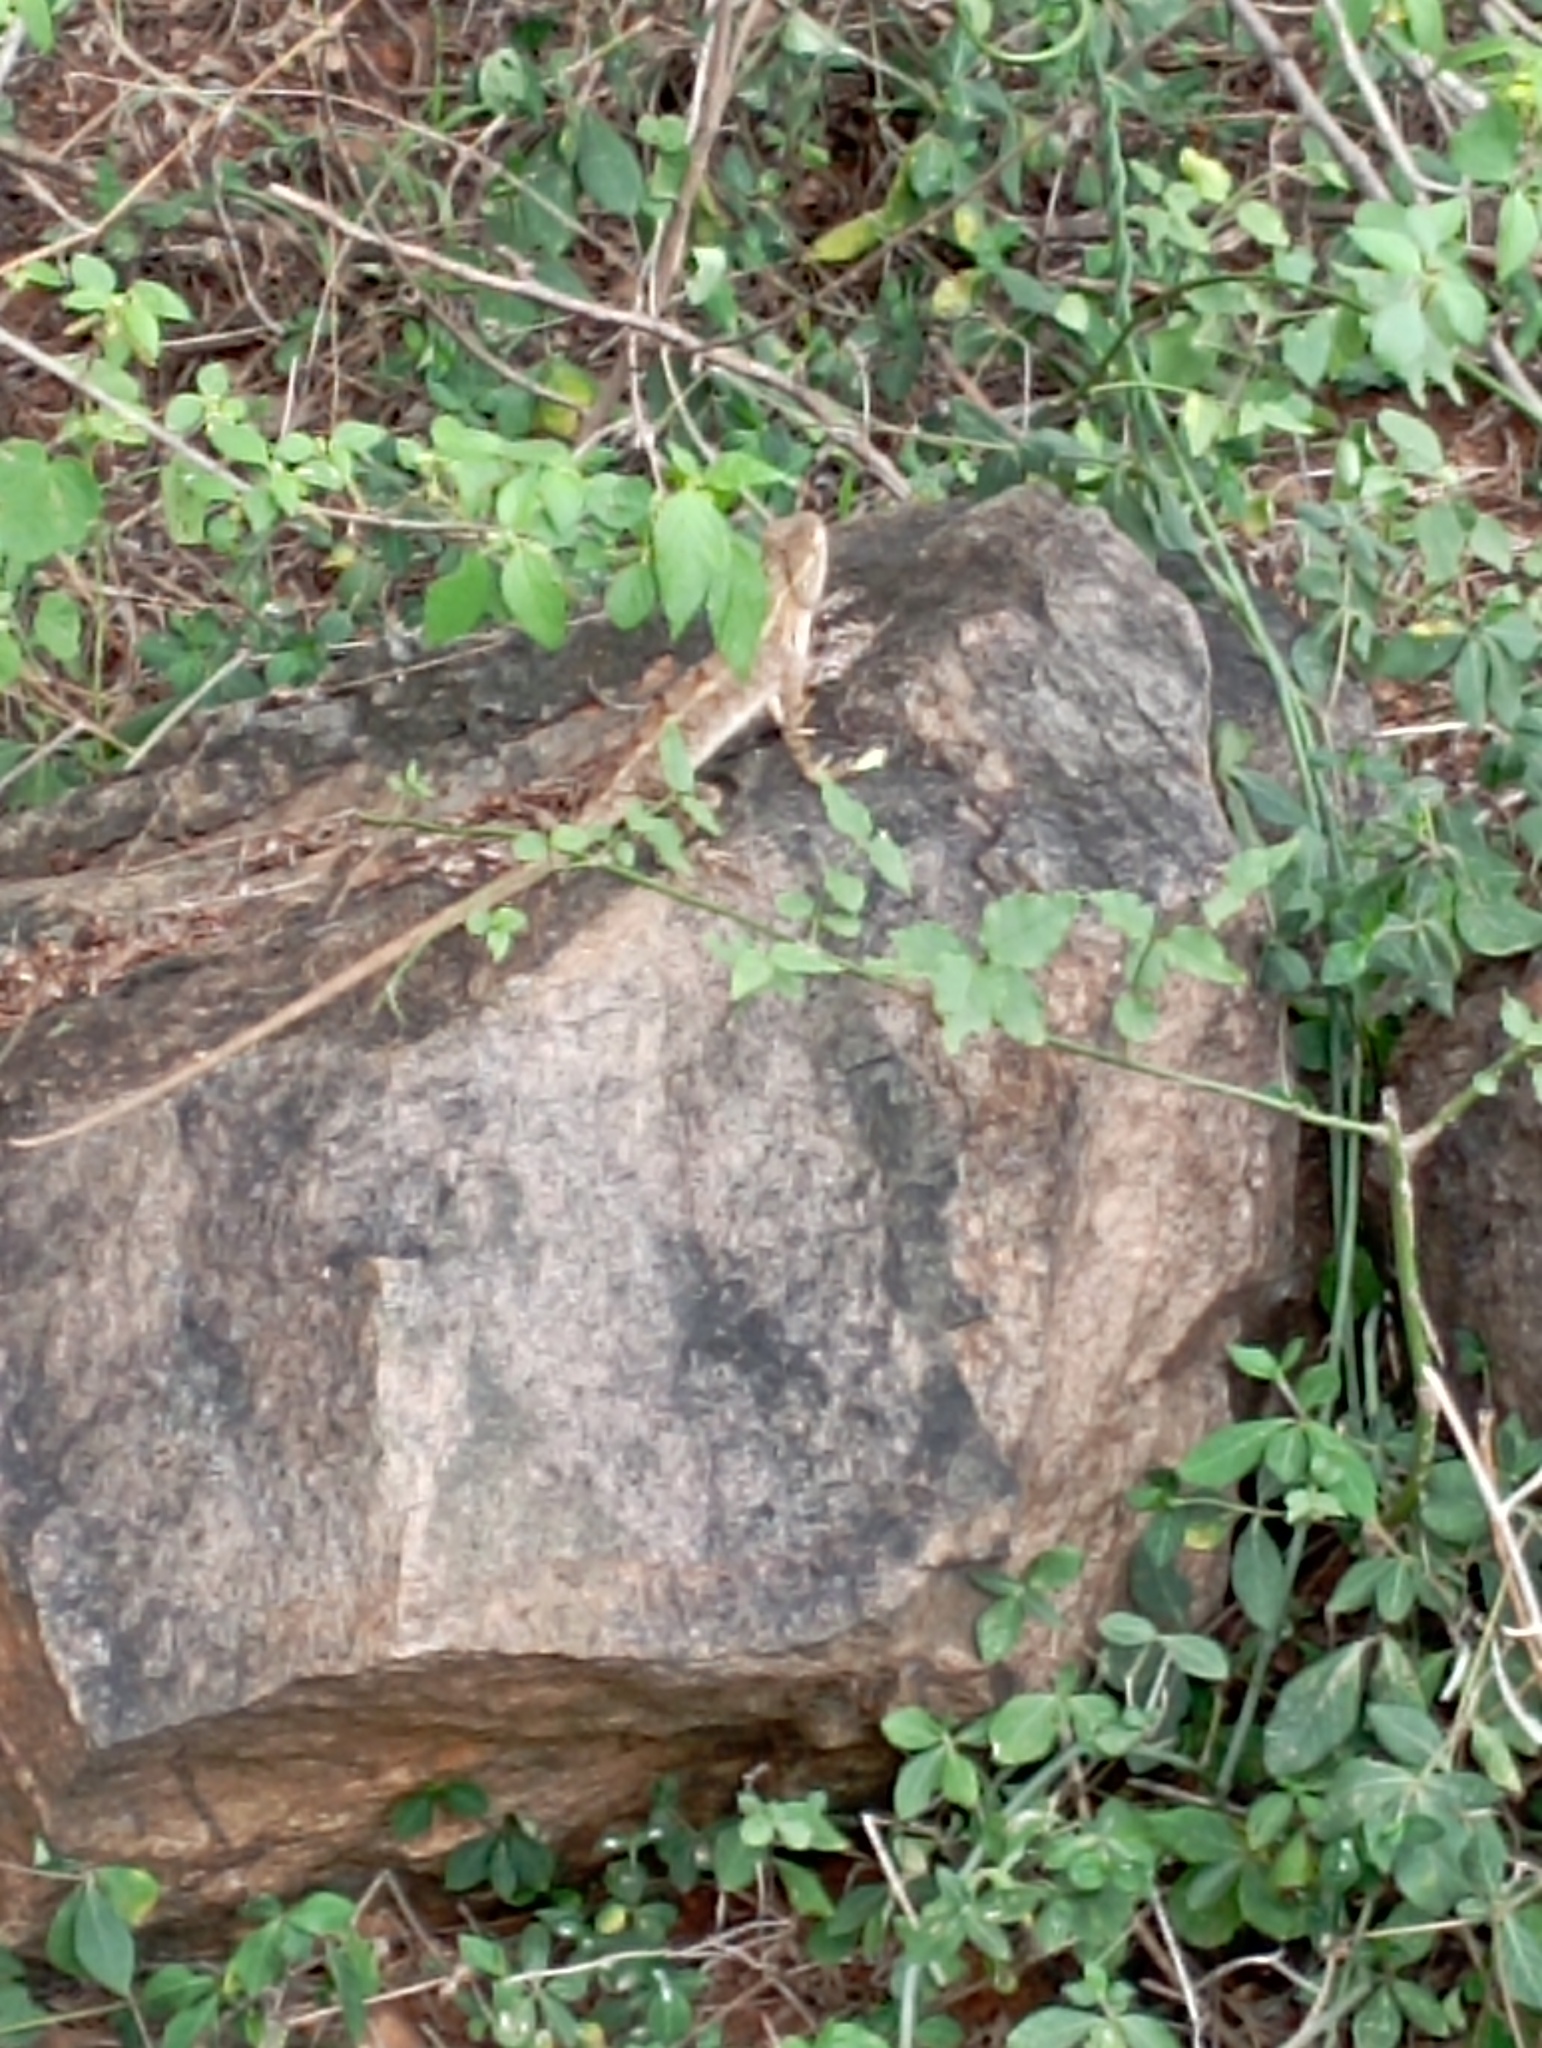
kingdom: Animalia
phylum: Chordata
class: Squamata
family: Agamidae
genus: Calotes
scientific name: Calotes versicolor
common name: Oriental garden lizard
